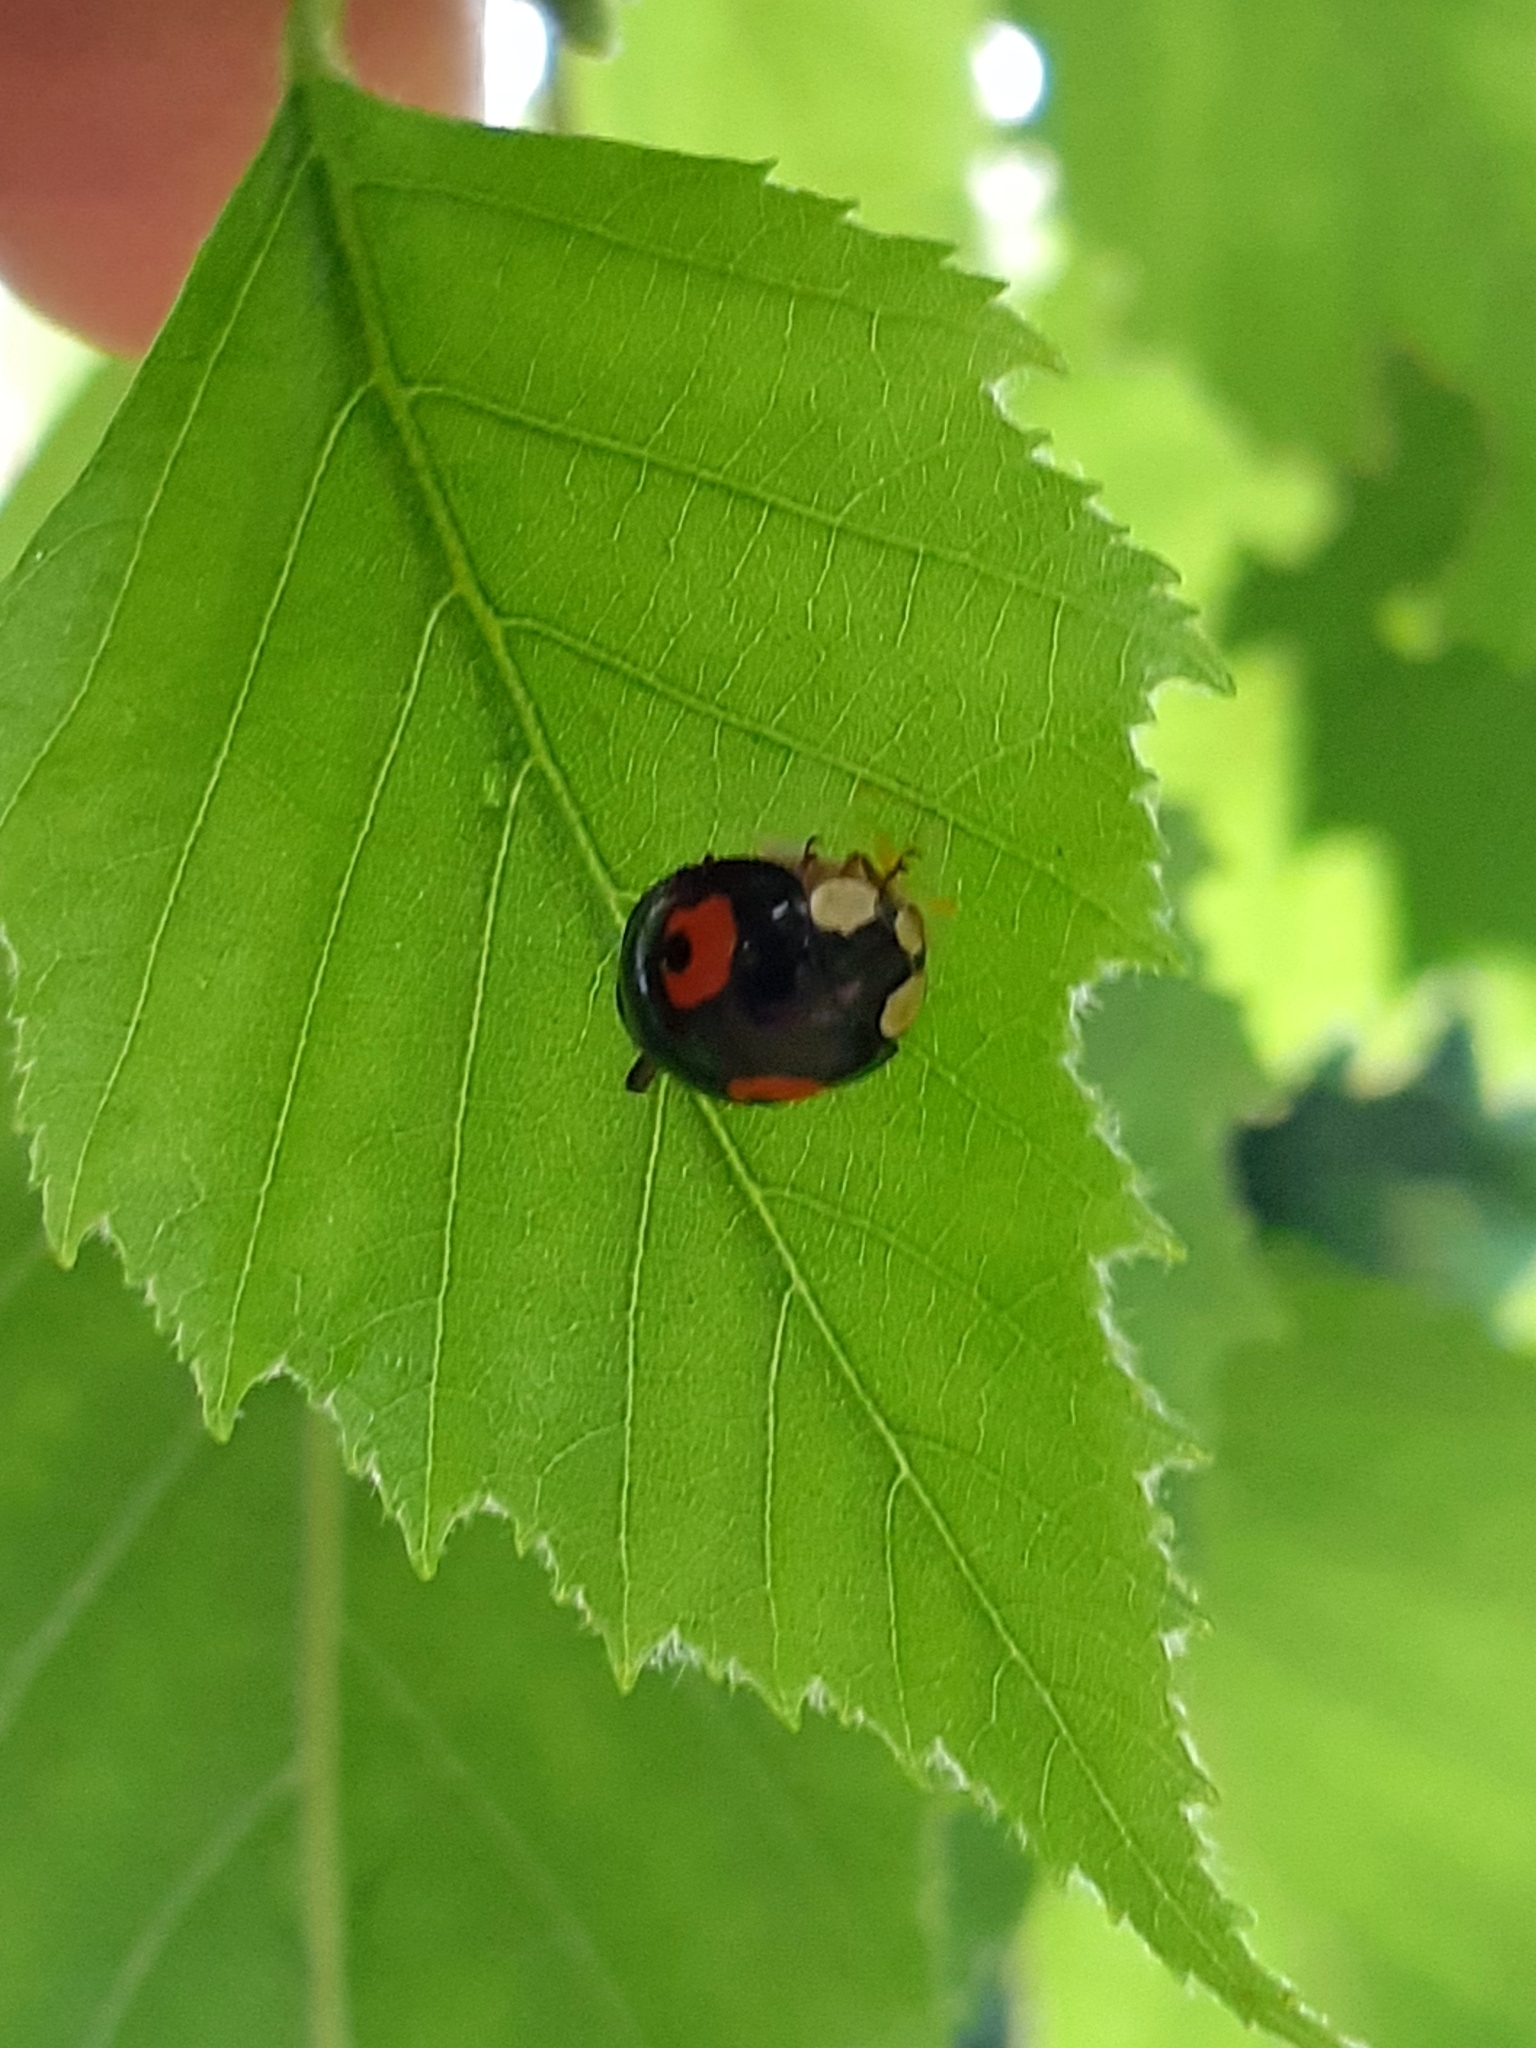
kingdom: Animalia
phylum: Arthropoda
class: Insecta
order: Coleoptera
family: Coccinellidae
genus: Harmonia
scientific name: Harmonia axyridis
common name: Harlequin ladybird
